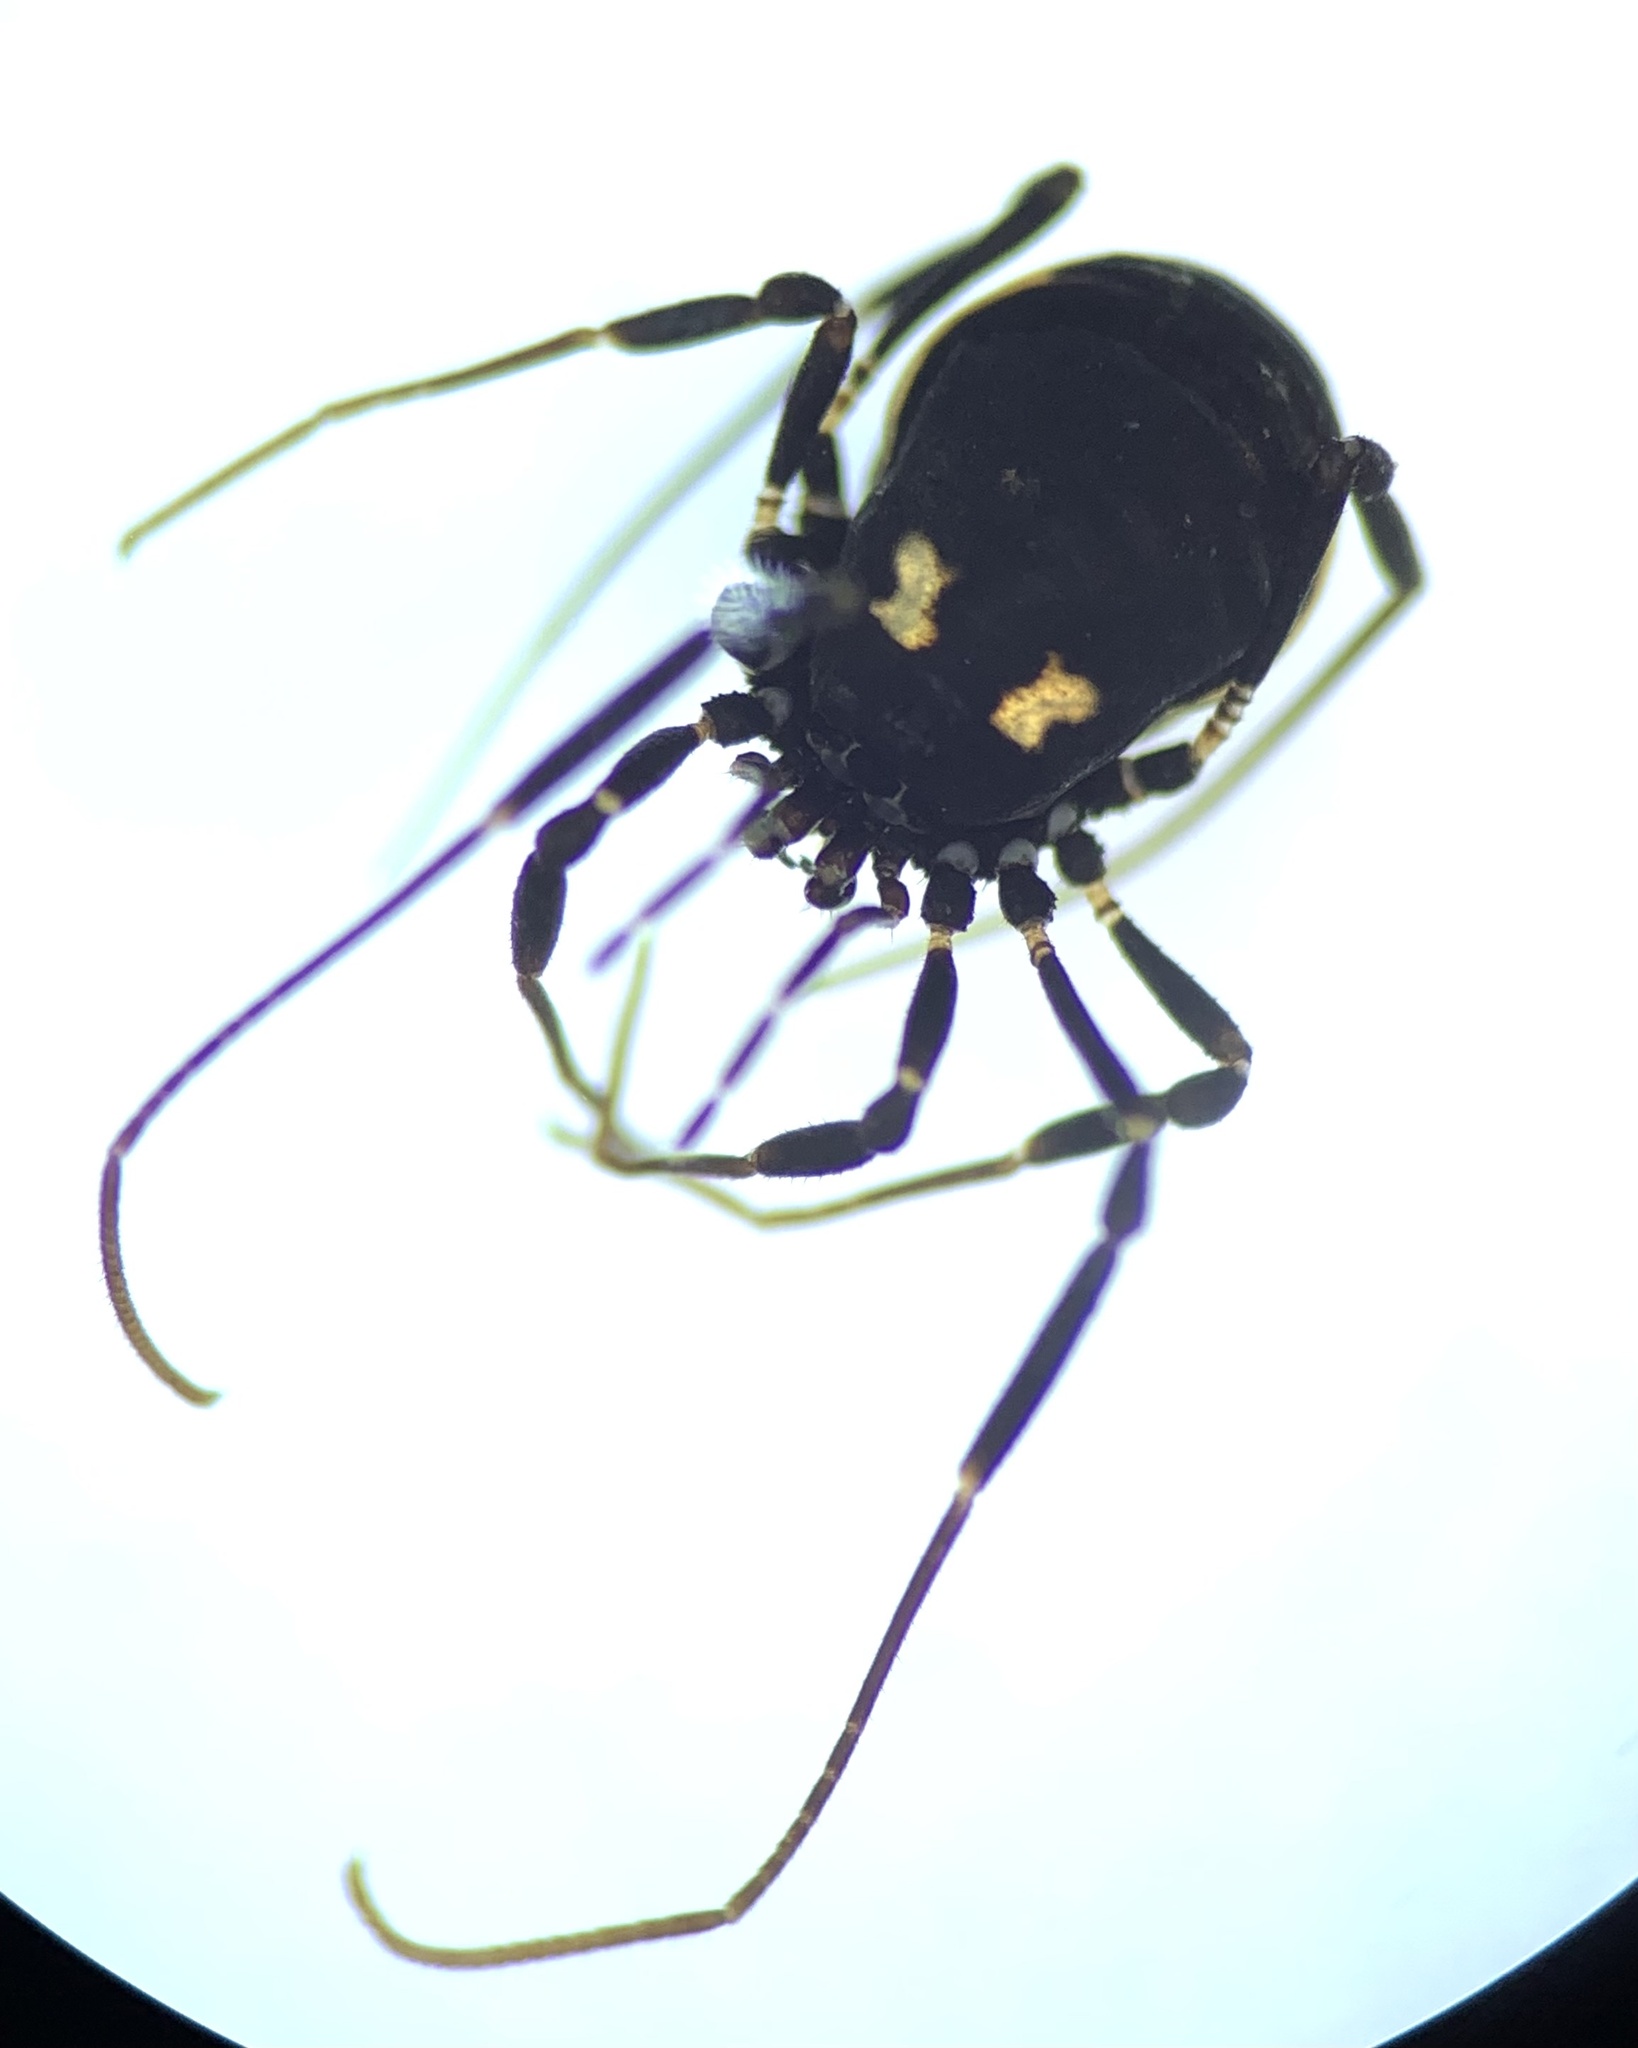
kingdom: Animalia
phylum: Arthropoda
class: Arachnida
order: Opiliones
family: Nemastomatidae
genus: Nemastoma
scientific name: Nemastoma bimaculatum
